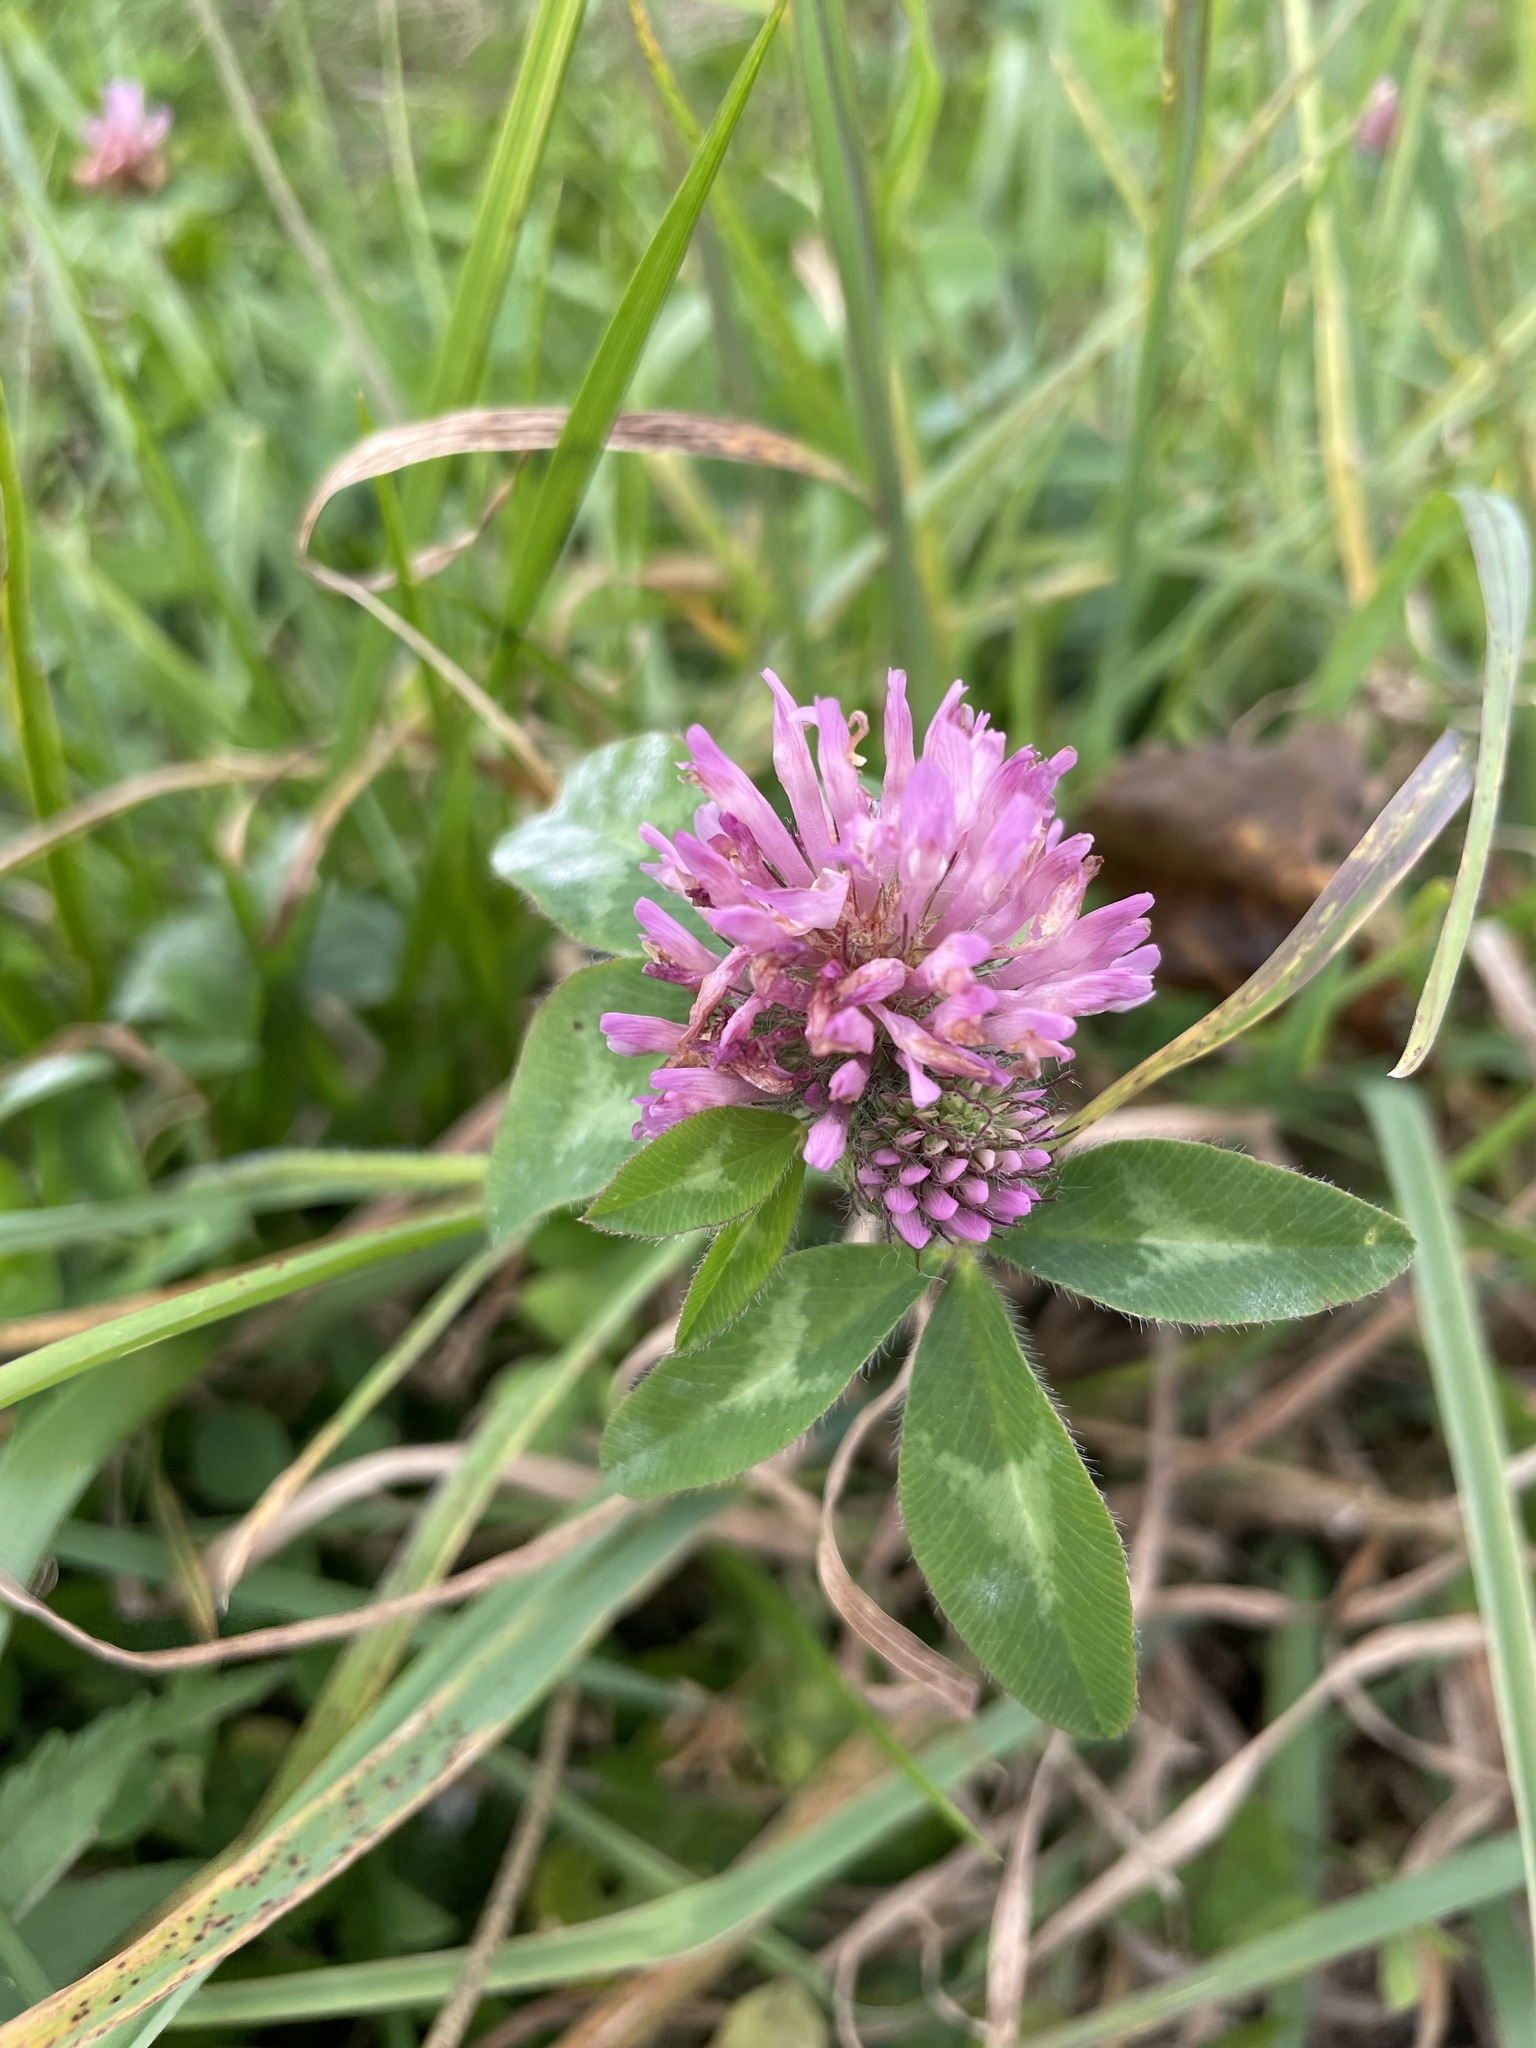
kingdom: Plantae
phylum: Tracheophyta
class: Magnoliopsida
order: Fabales
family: Fabaceae
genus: Trifolium
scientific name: Trifolium pratense
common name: Red clover
